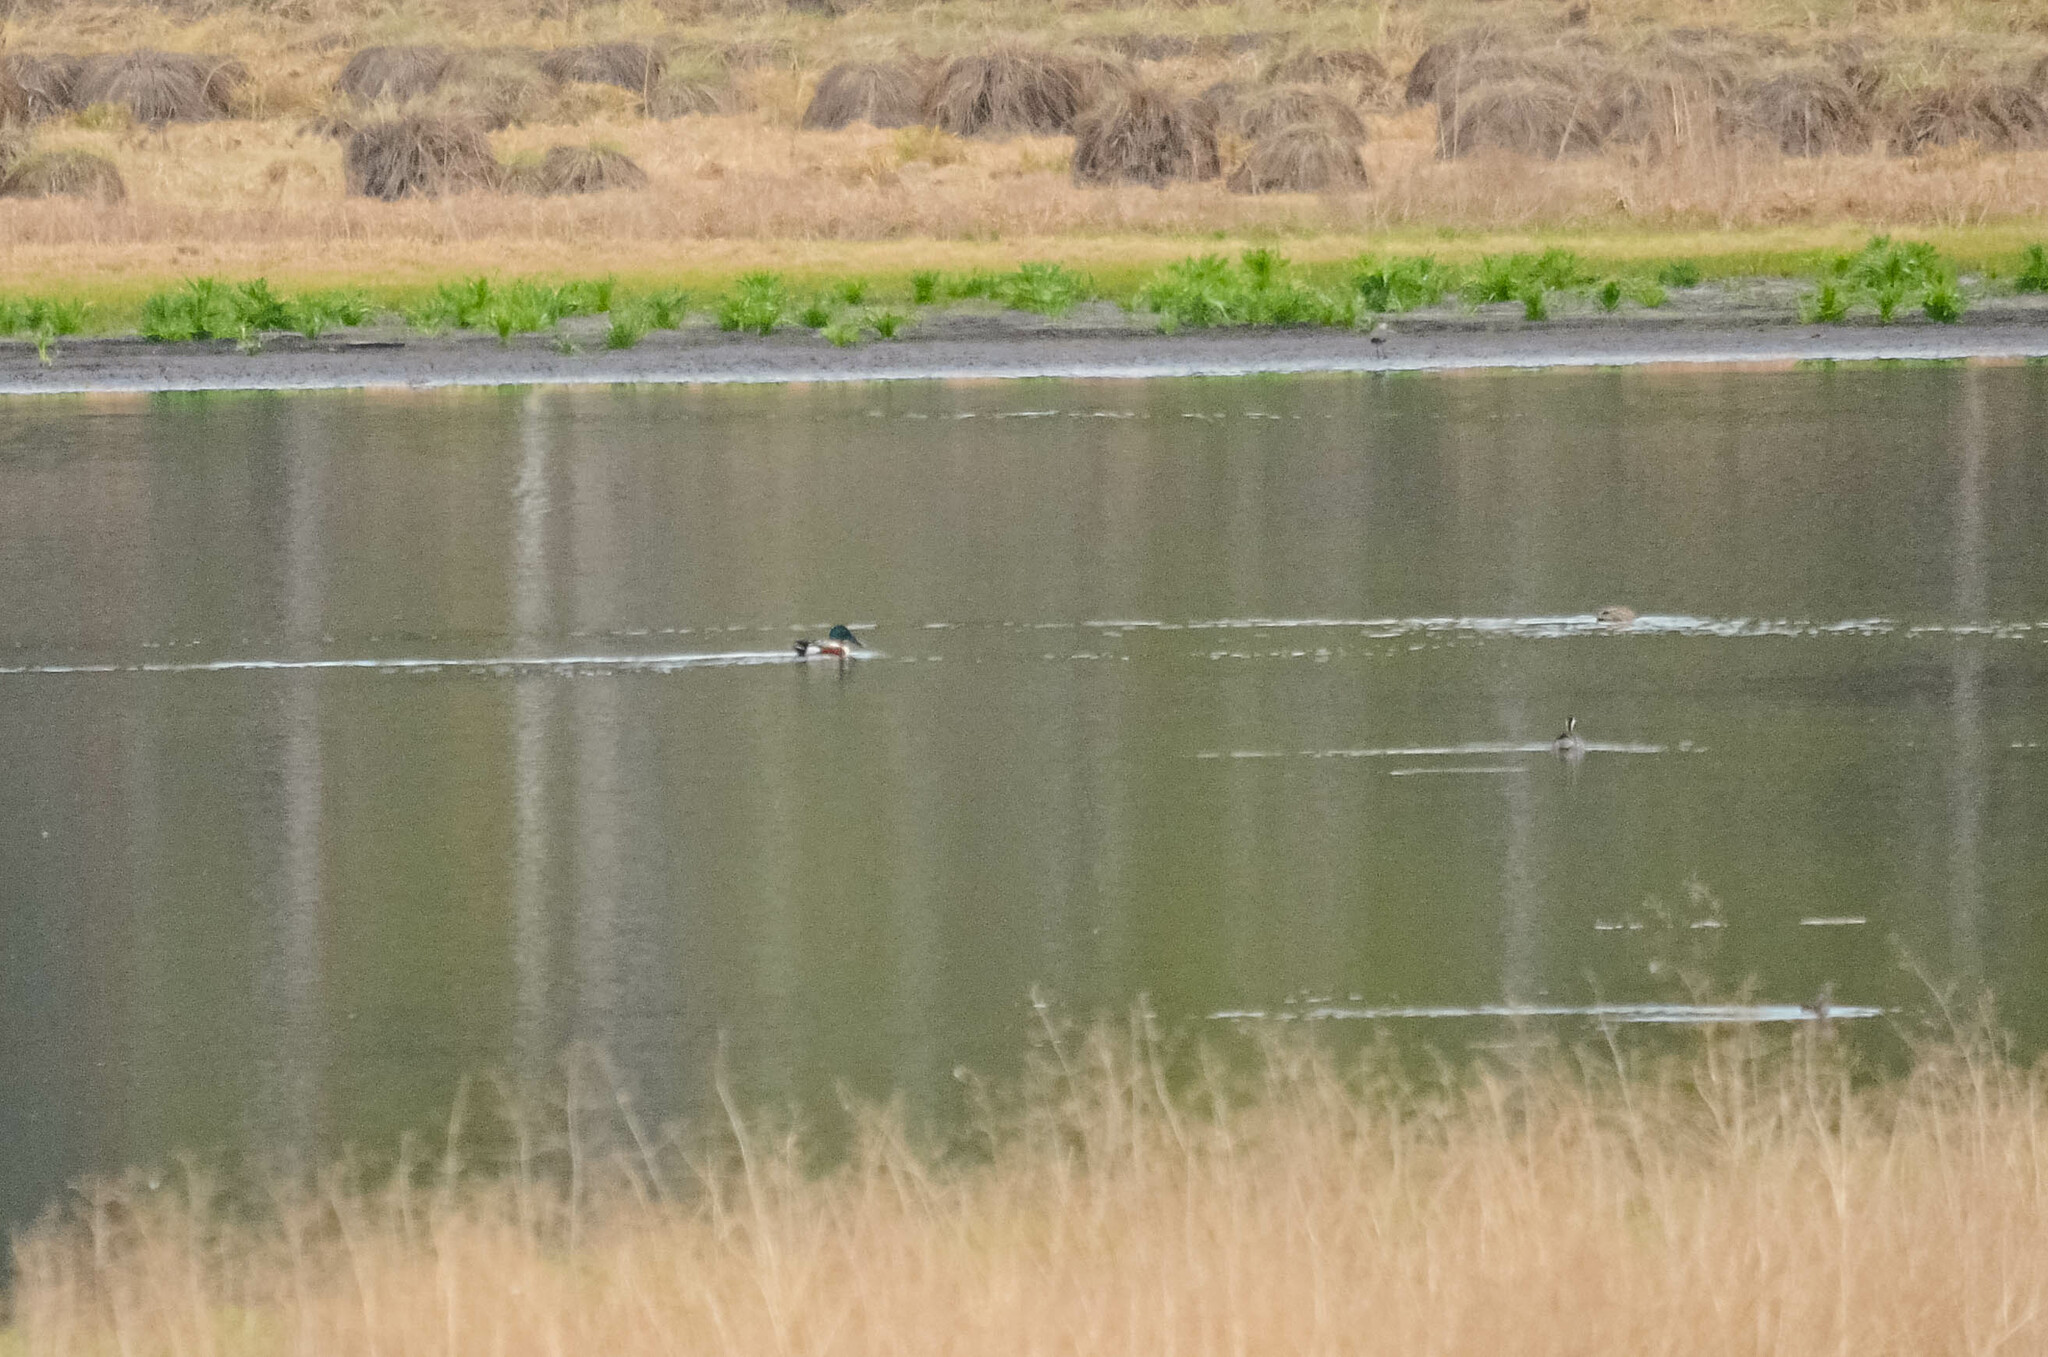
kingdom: Animalia
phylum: Chordata
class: Aves
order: Anseriformes
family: Anatidae
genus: Spatula
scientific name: Spatula clypeata
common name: Northern shoveler
